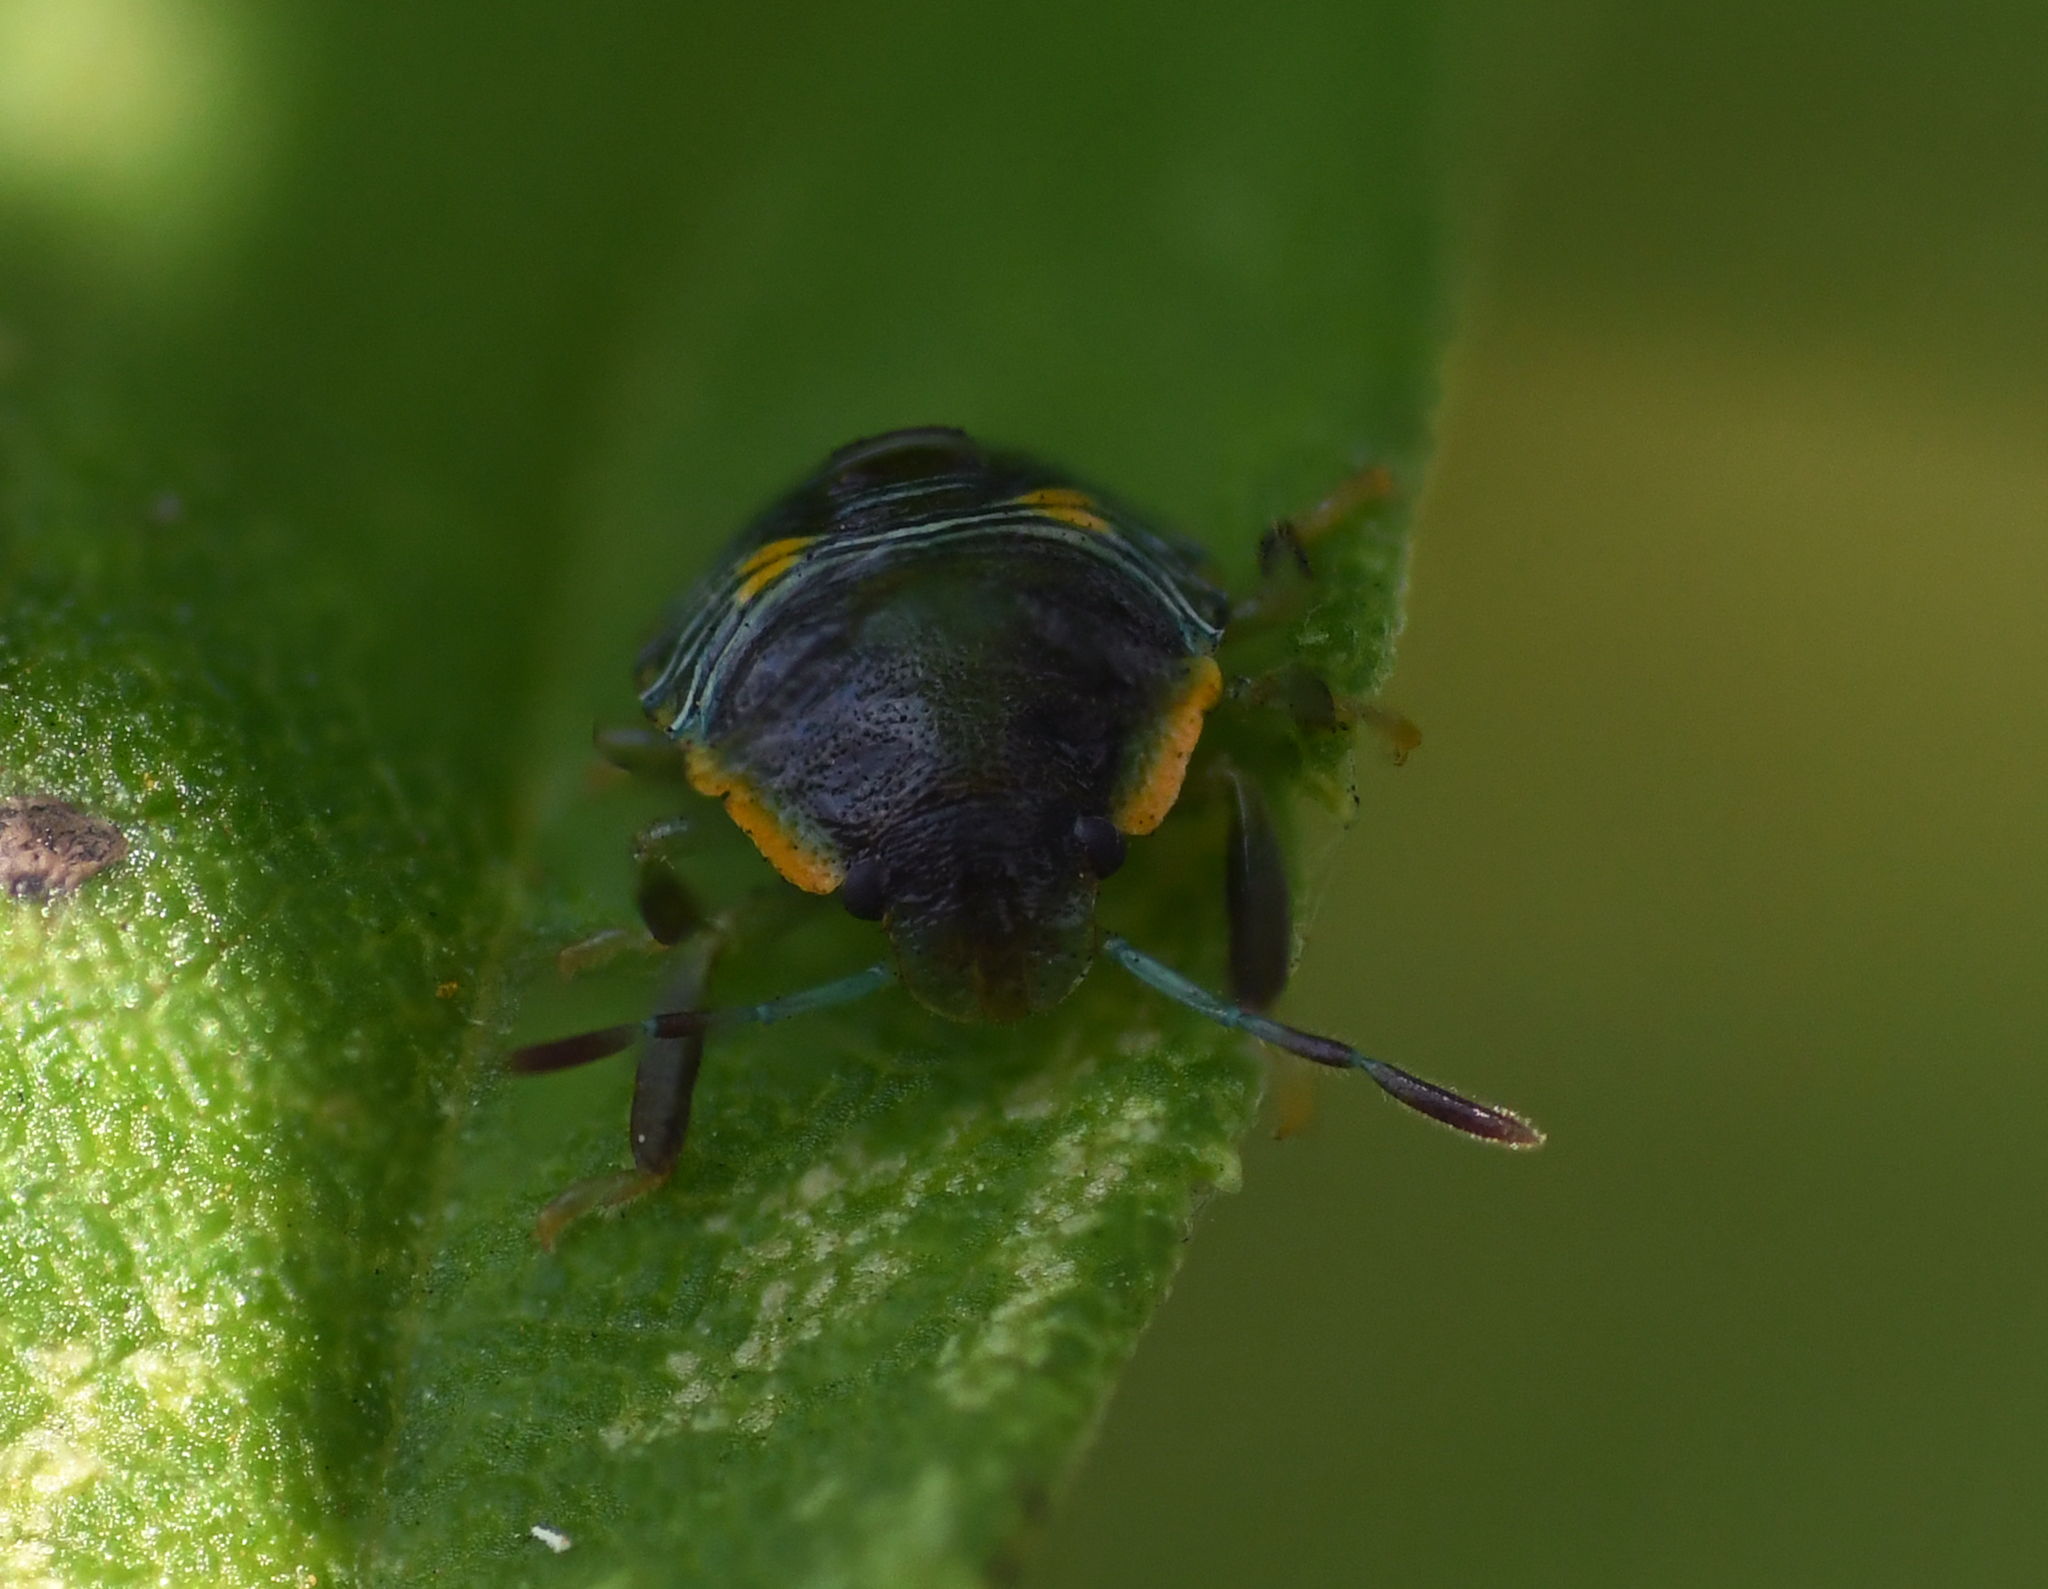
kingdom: Animalia
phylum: Arthropoda
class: Insecta
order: Hemiptera
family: Pentatomidae
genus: Chinavia
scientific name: Chinavia hilaris
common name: Green stink bug
